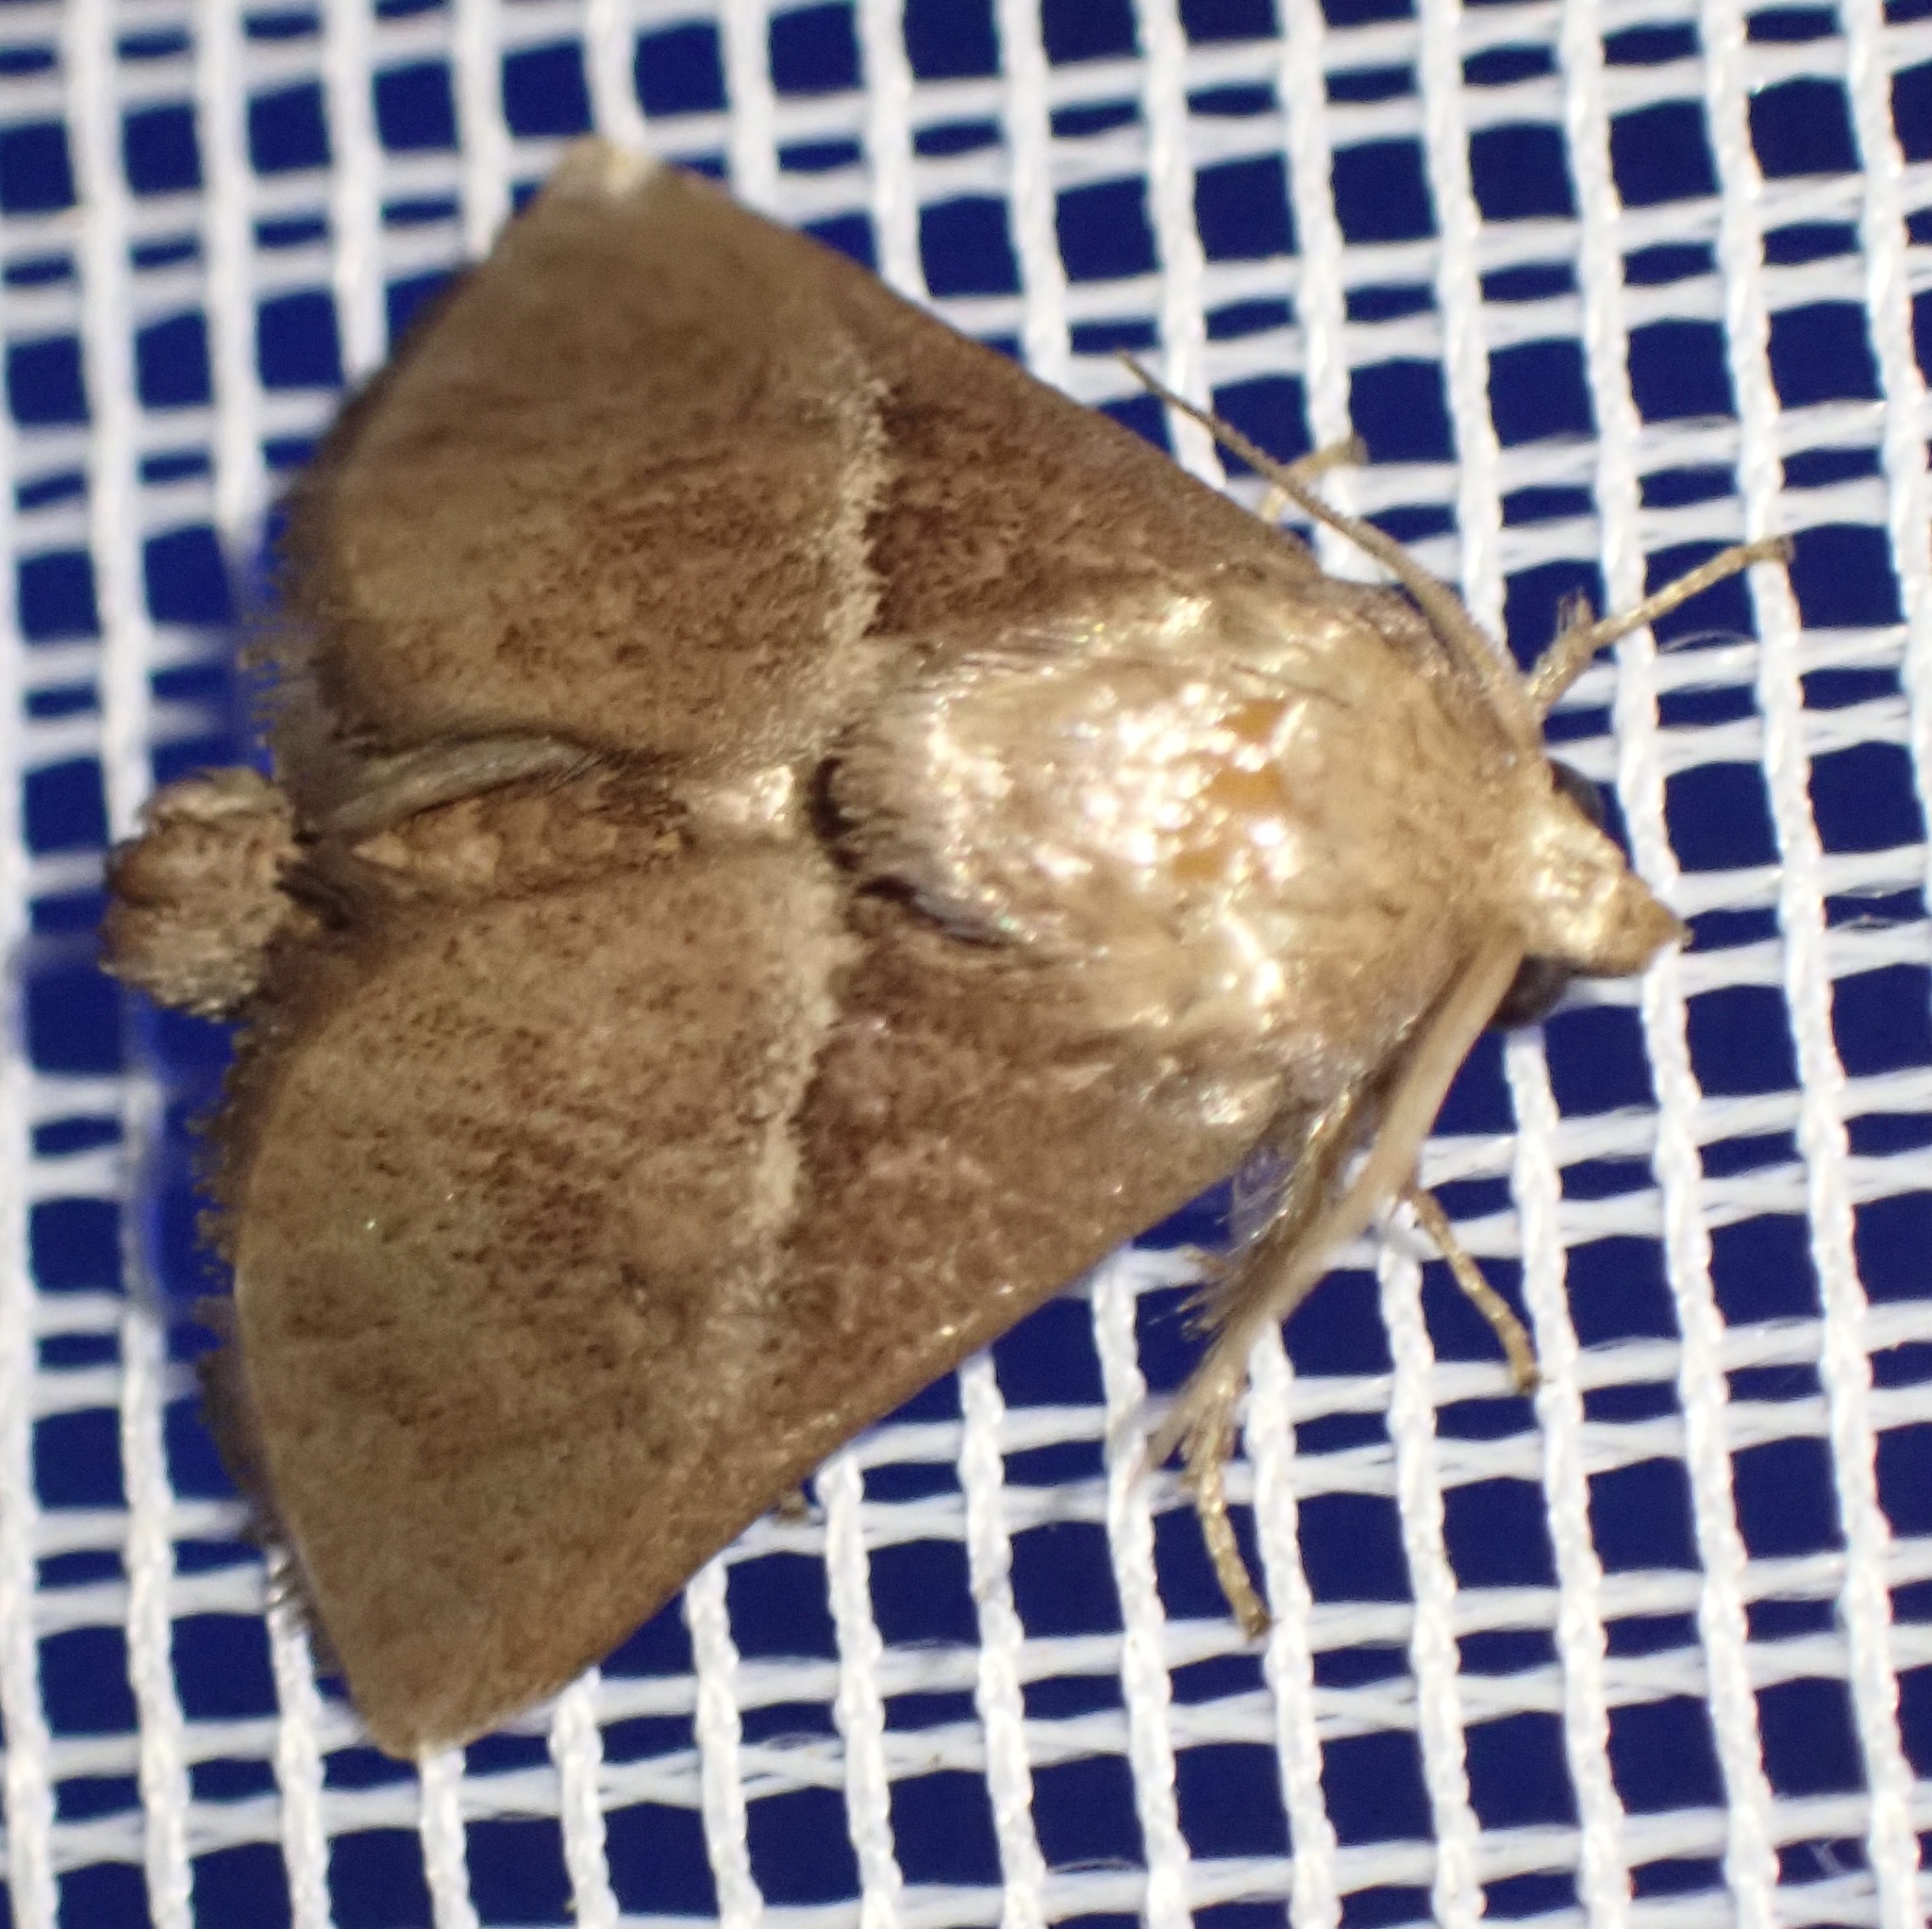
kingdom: Animalia
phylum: Arthropoda
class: Insecta
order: Lepidoptera
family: Limacodidae
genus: Anilina
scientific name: Anilina plebeia
